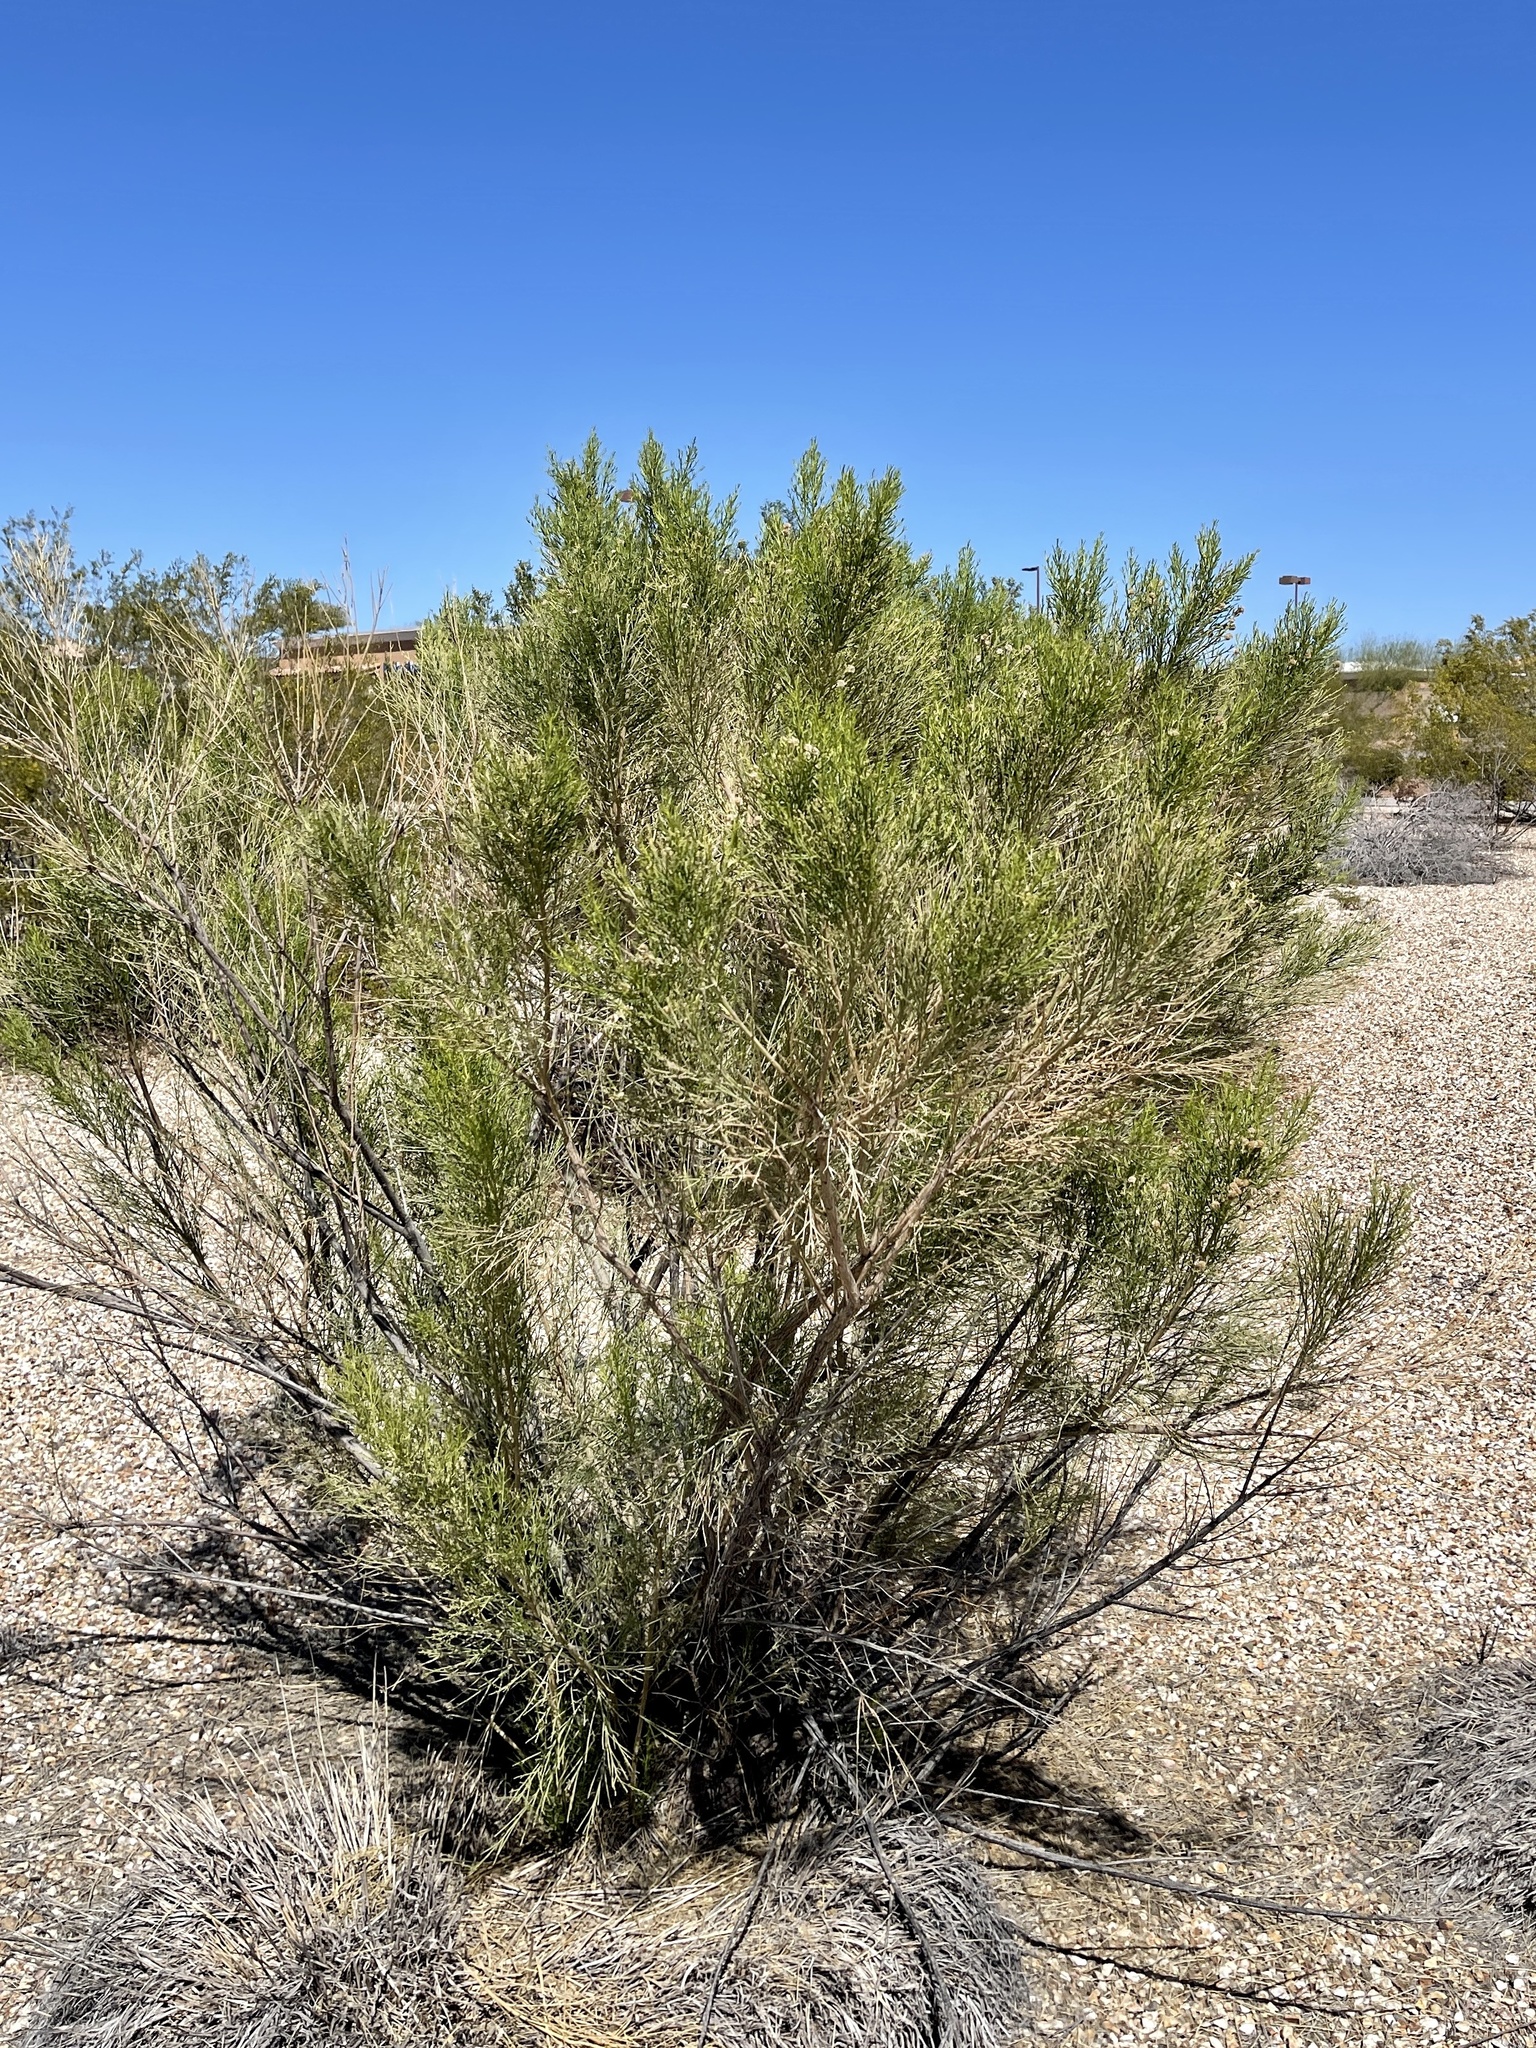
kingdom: Plantae
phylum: Tracheophyta
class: Magnoliopsida
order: Asterales
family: Asteraceae
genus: Baccharis
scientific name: Baccharis sarothroides
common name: Desert-broom
